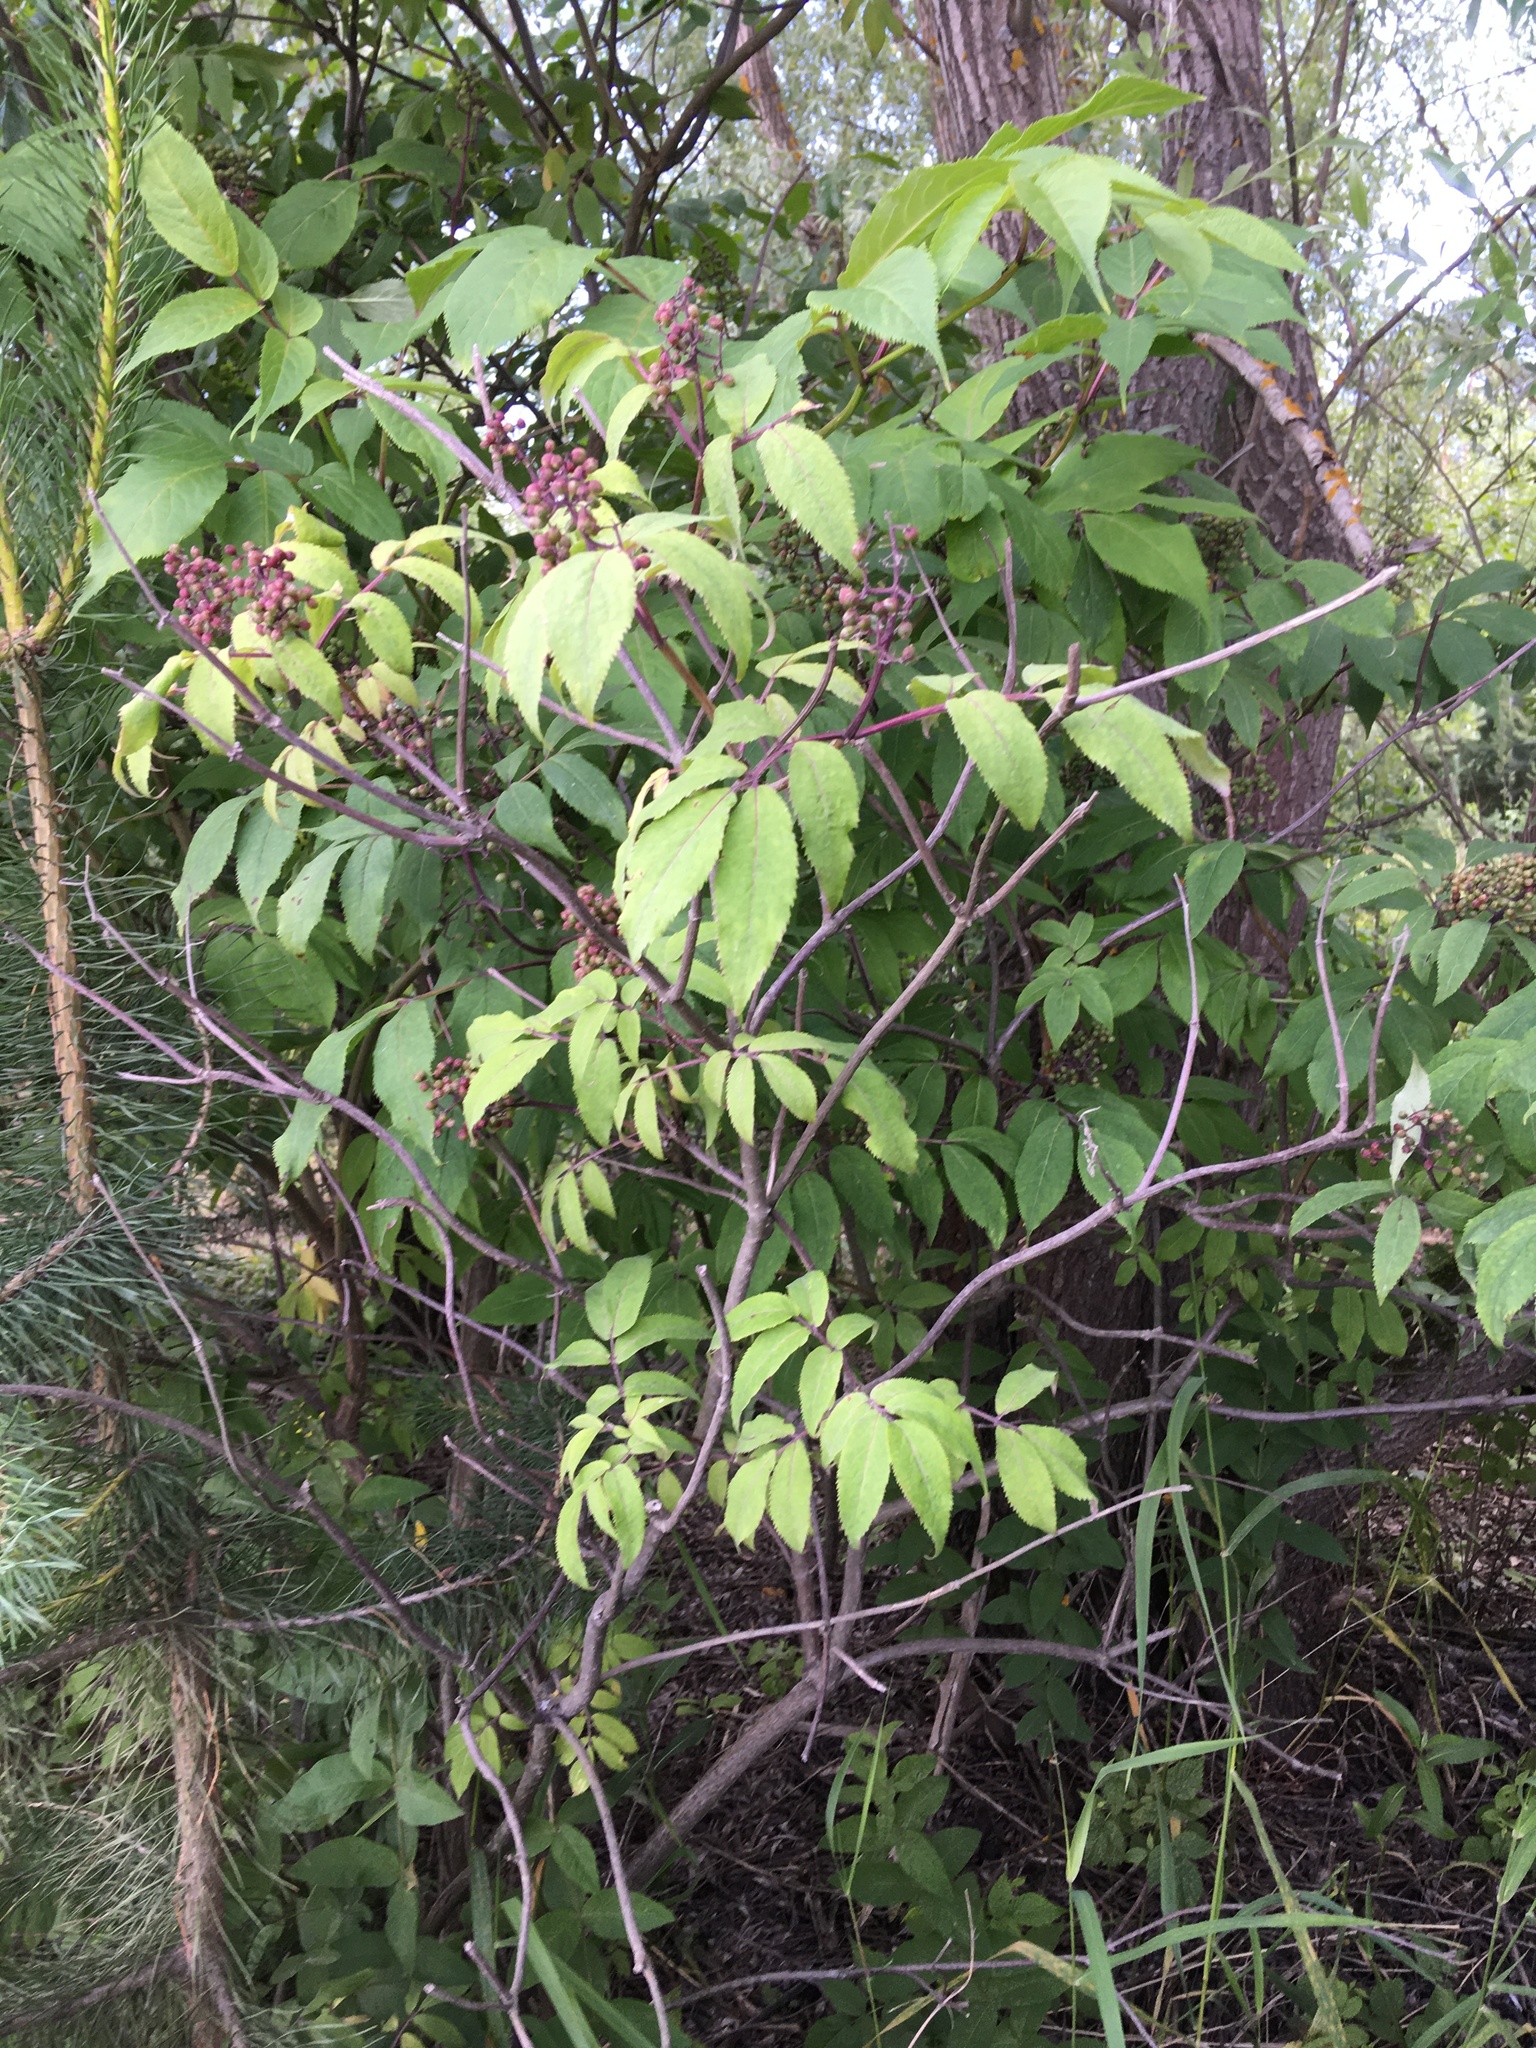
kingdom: Plantae
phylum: Tracheophyta
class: Magnoliopsida
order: Dipsacales
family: Viburnaceae
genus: Sambucus
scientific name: Sambucus racemosa
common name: Red-berried elder
